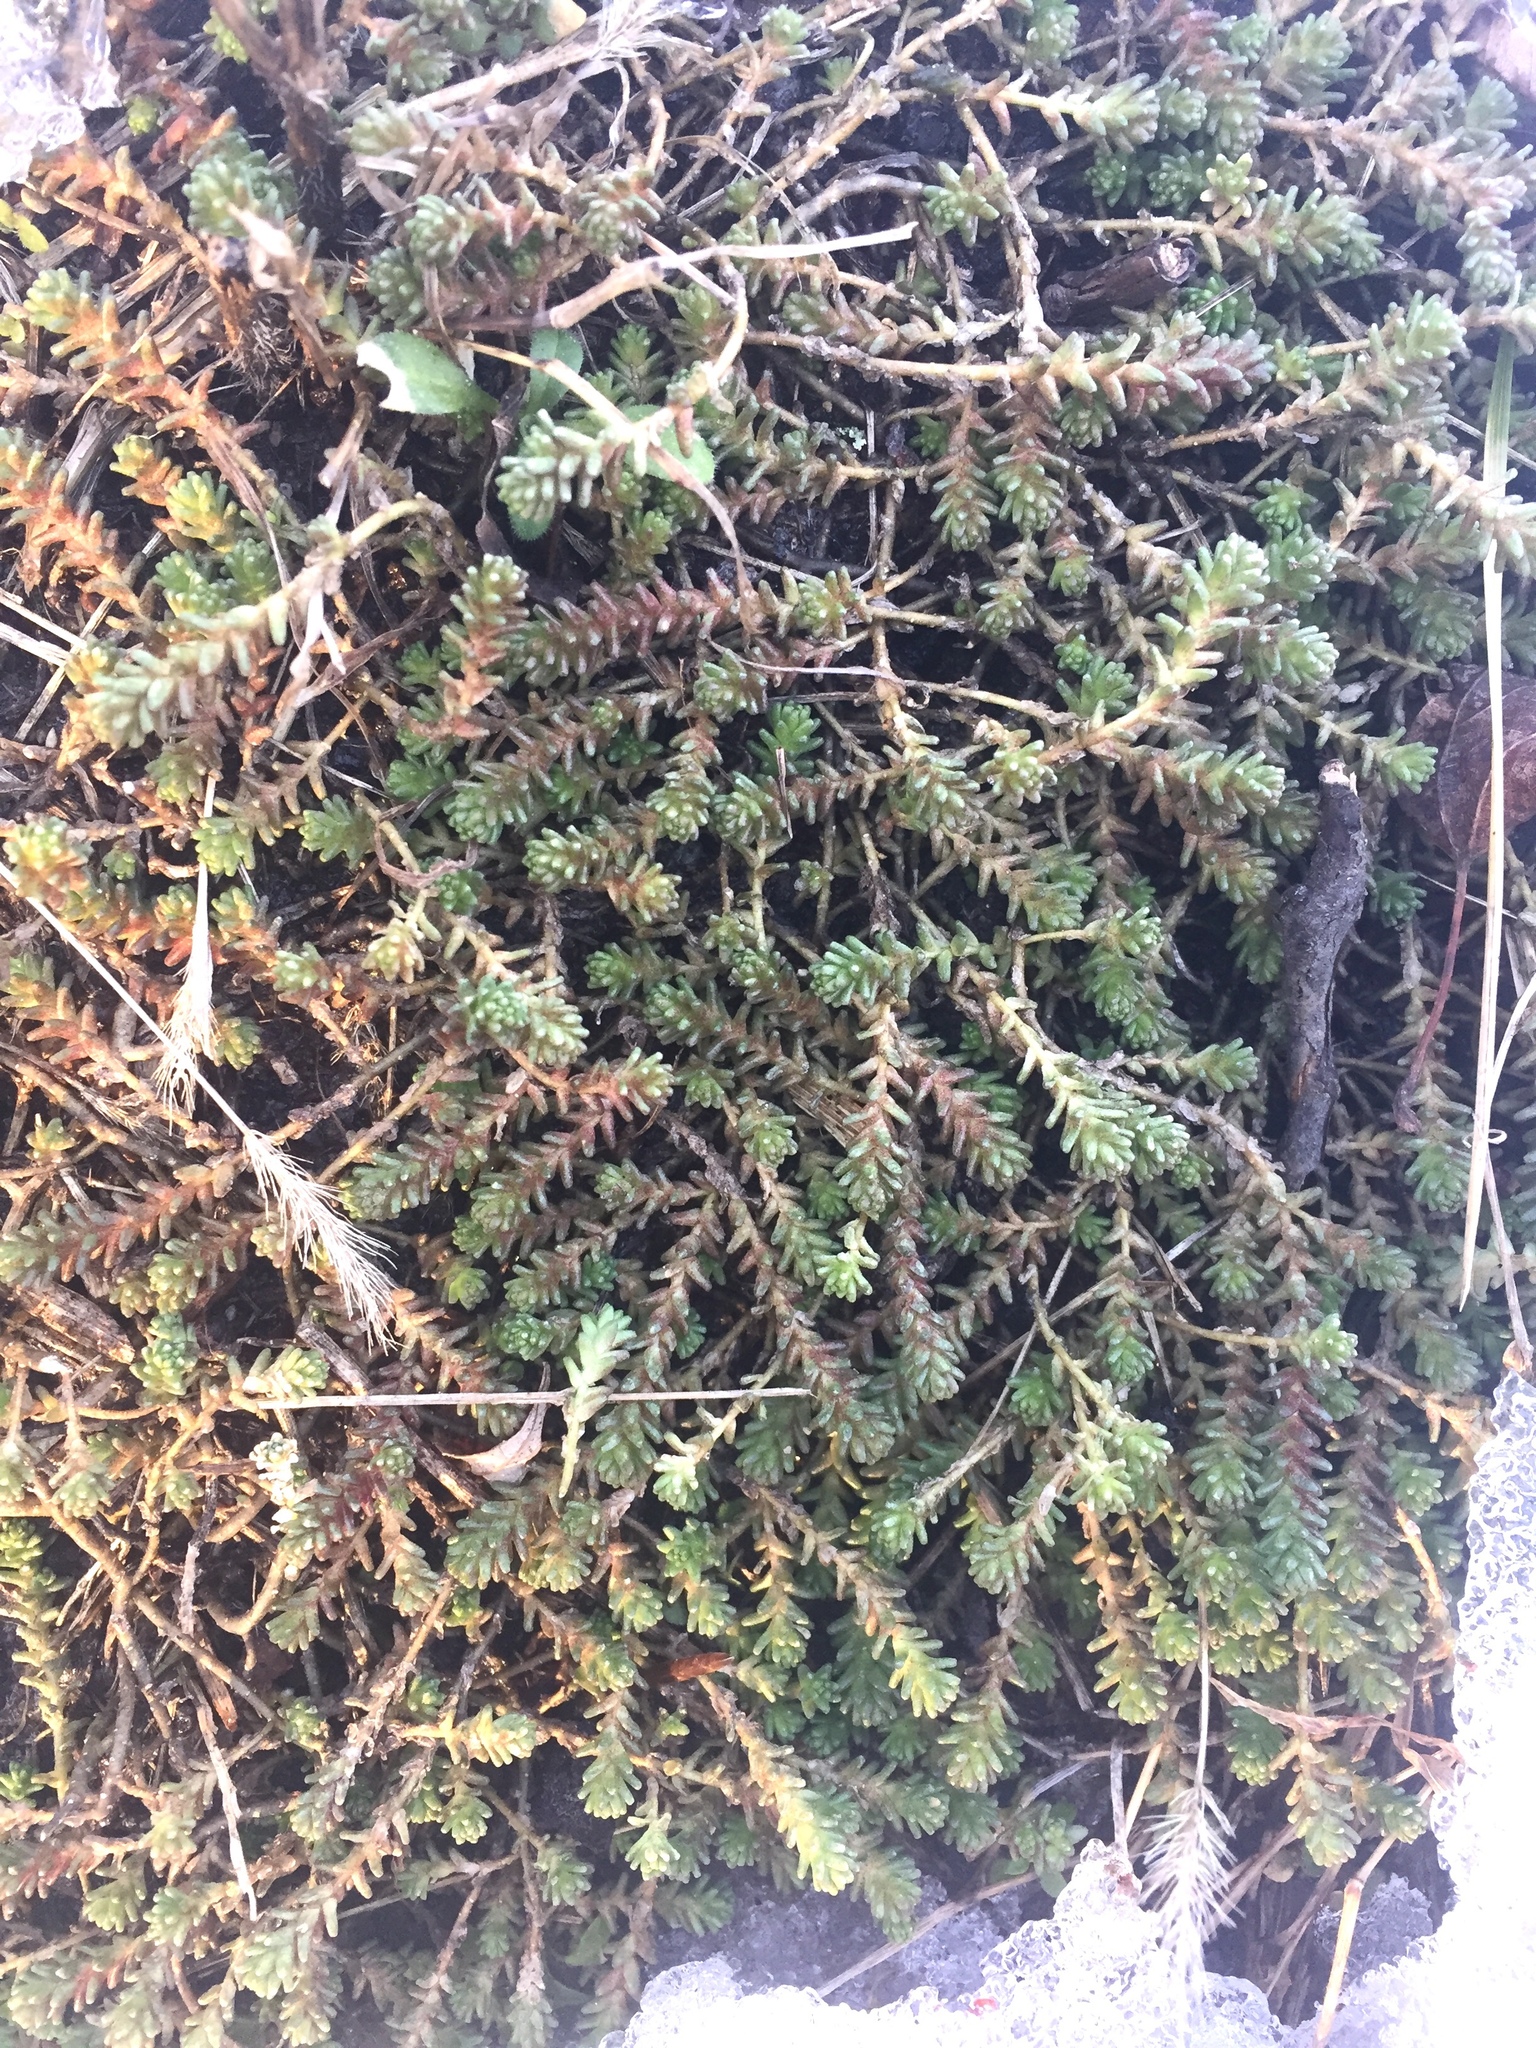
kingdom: Plantae
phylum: Tracheophyta
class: Magnoliopsida
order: Saxifragales
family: Crassulaceae
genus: Sedum
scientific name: Sedum acre
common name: Biting stonecrop
